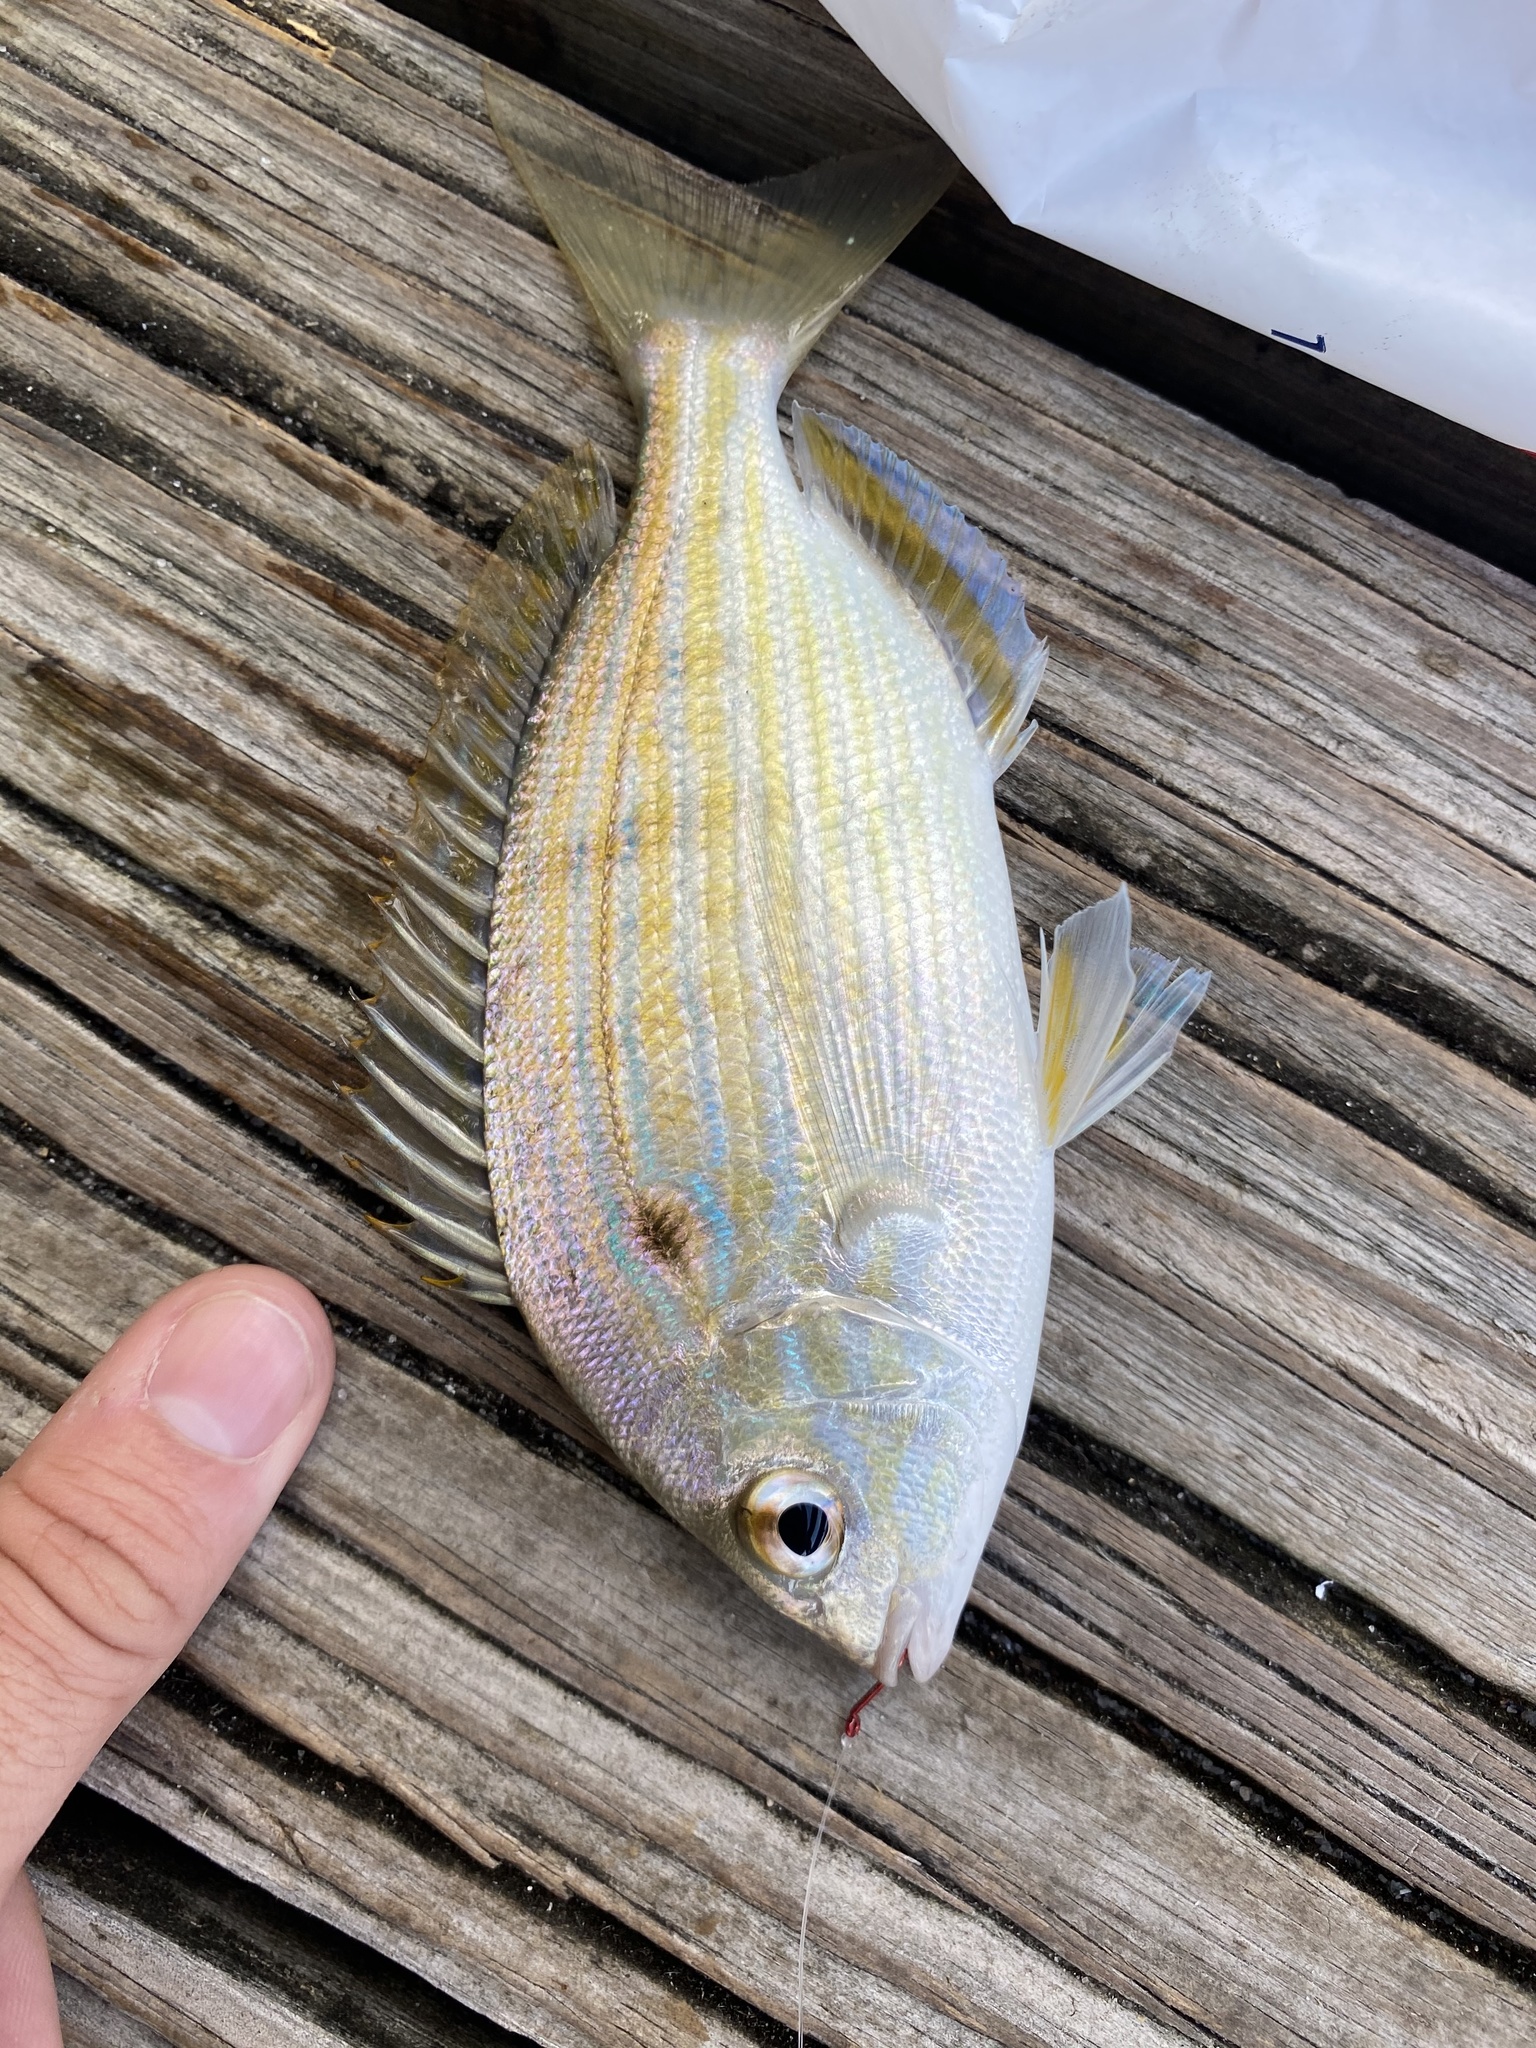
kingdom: Animalia
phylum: Chordata
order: Perciformes
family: Sparidae
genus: Lagodon
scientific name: Lagodon rhomboides
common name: Pinfish
